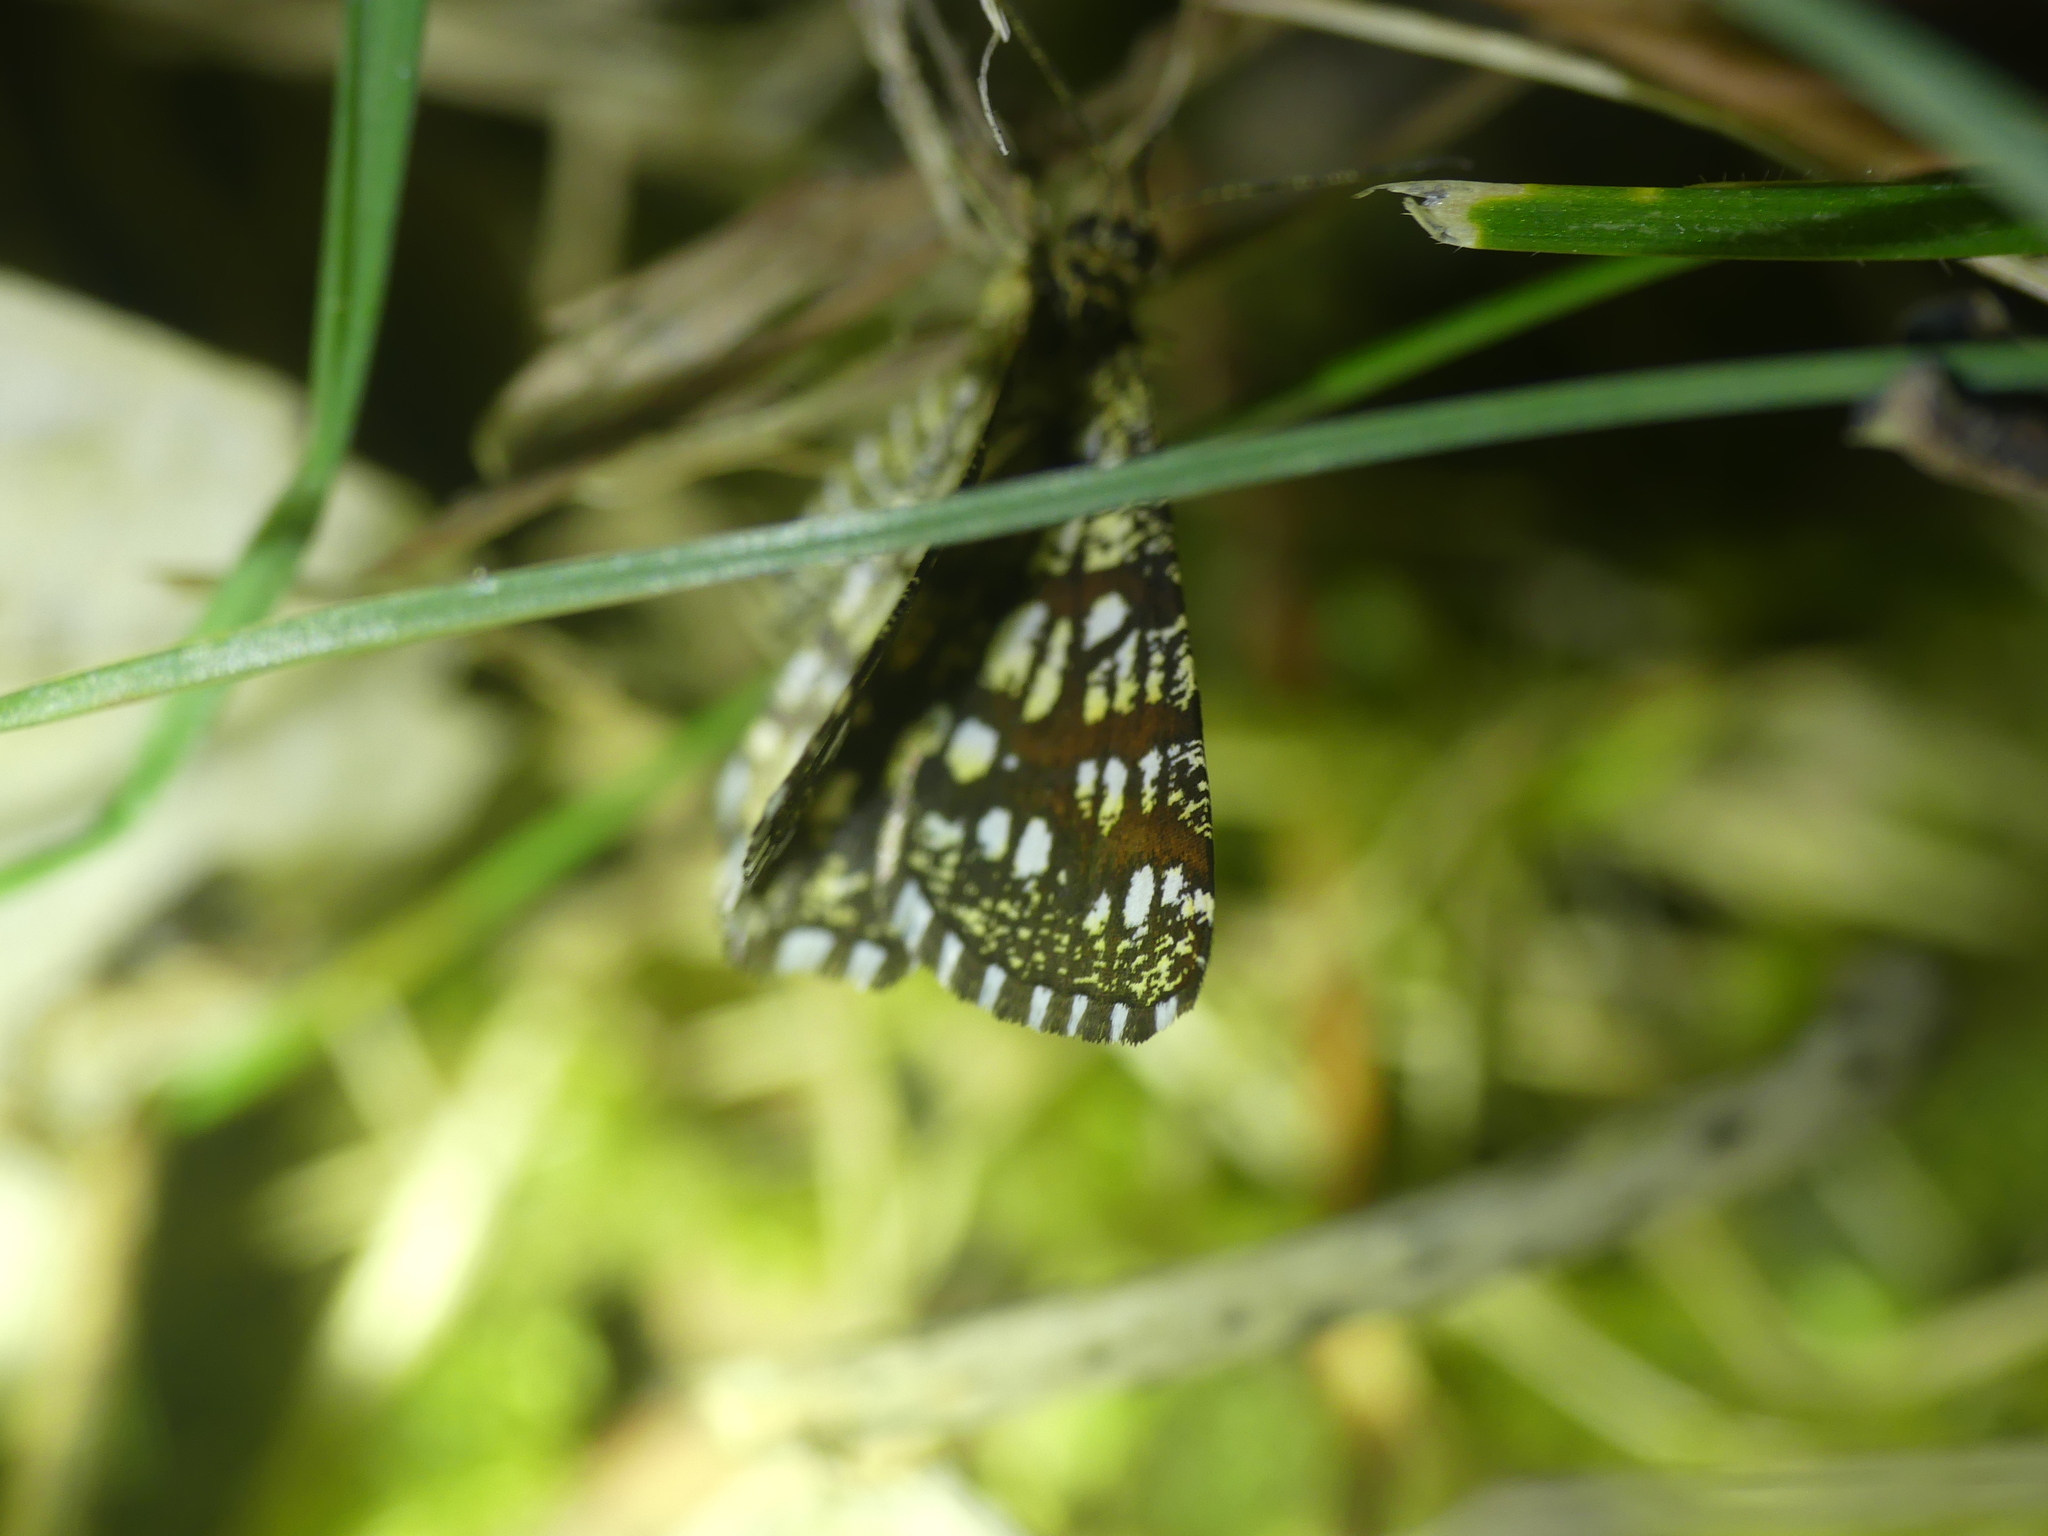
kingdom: Animalia
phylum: Arthropoda
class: Insecta
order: Lepidoptera
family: Geometridae
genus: Chiasmia
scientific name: Chiasmia clathrata
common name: Latticed heath
